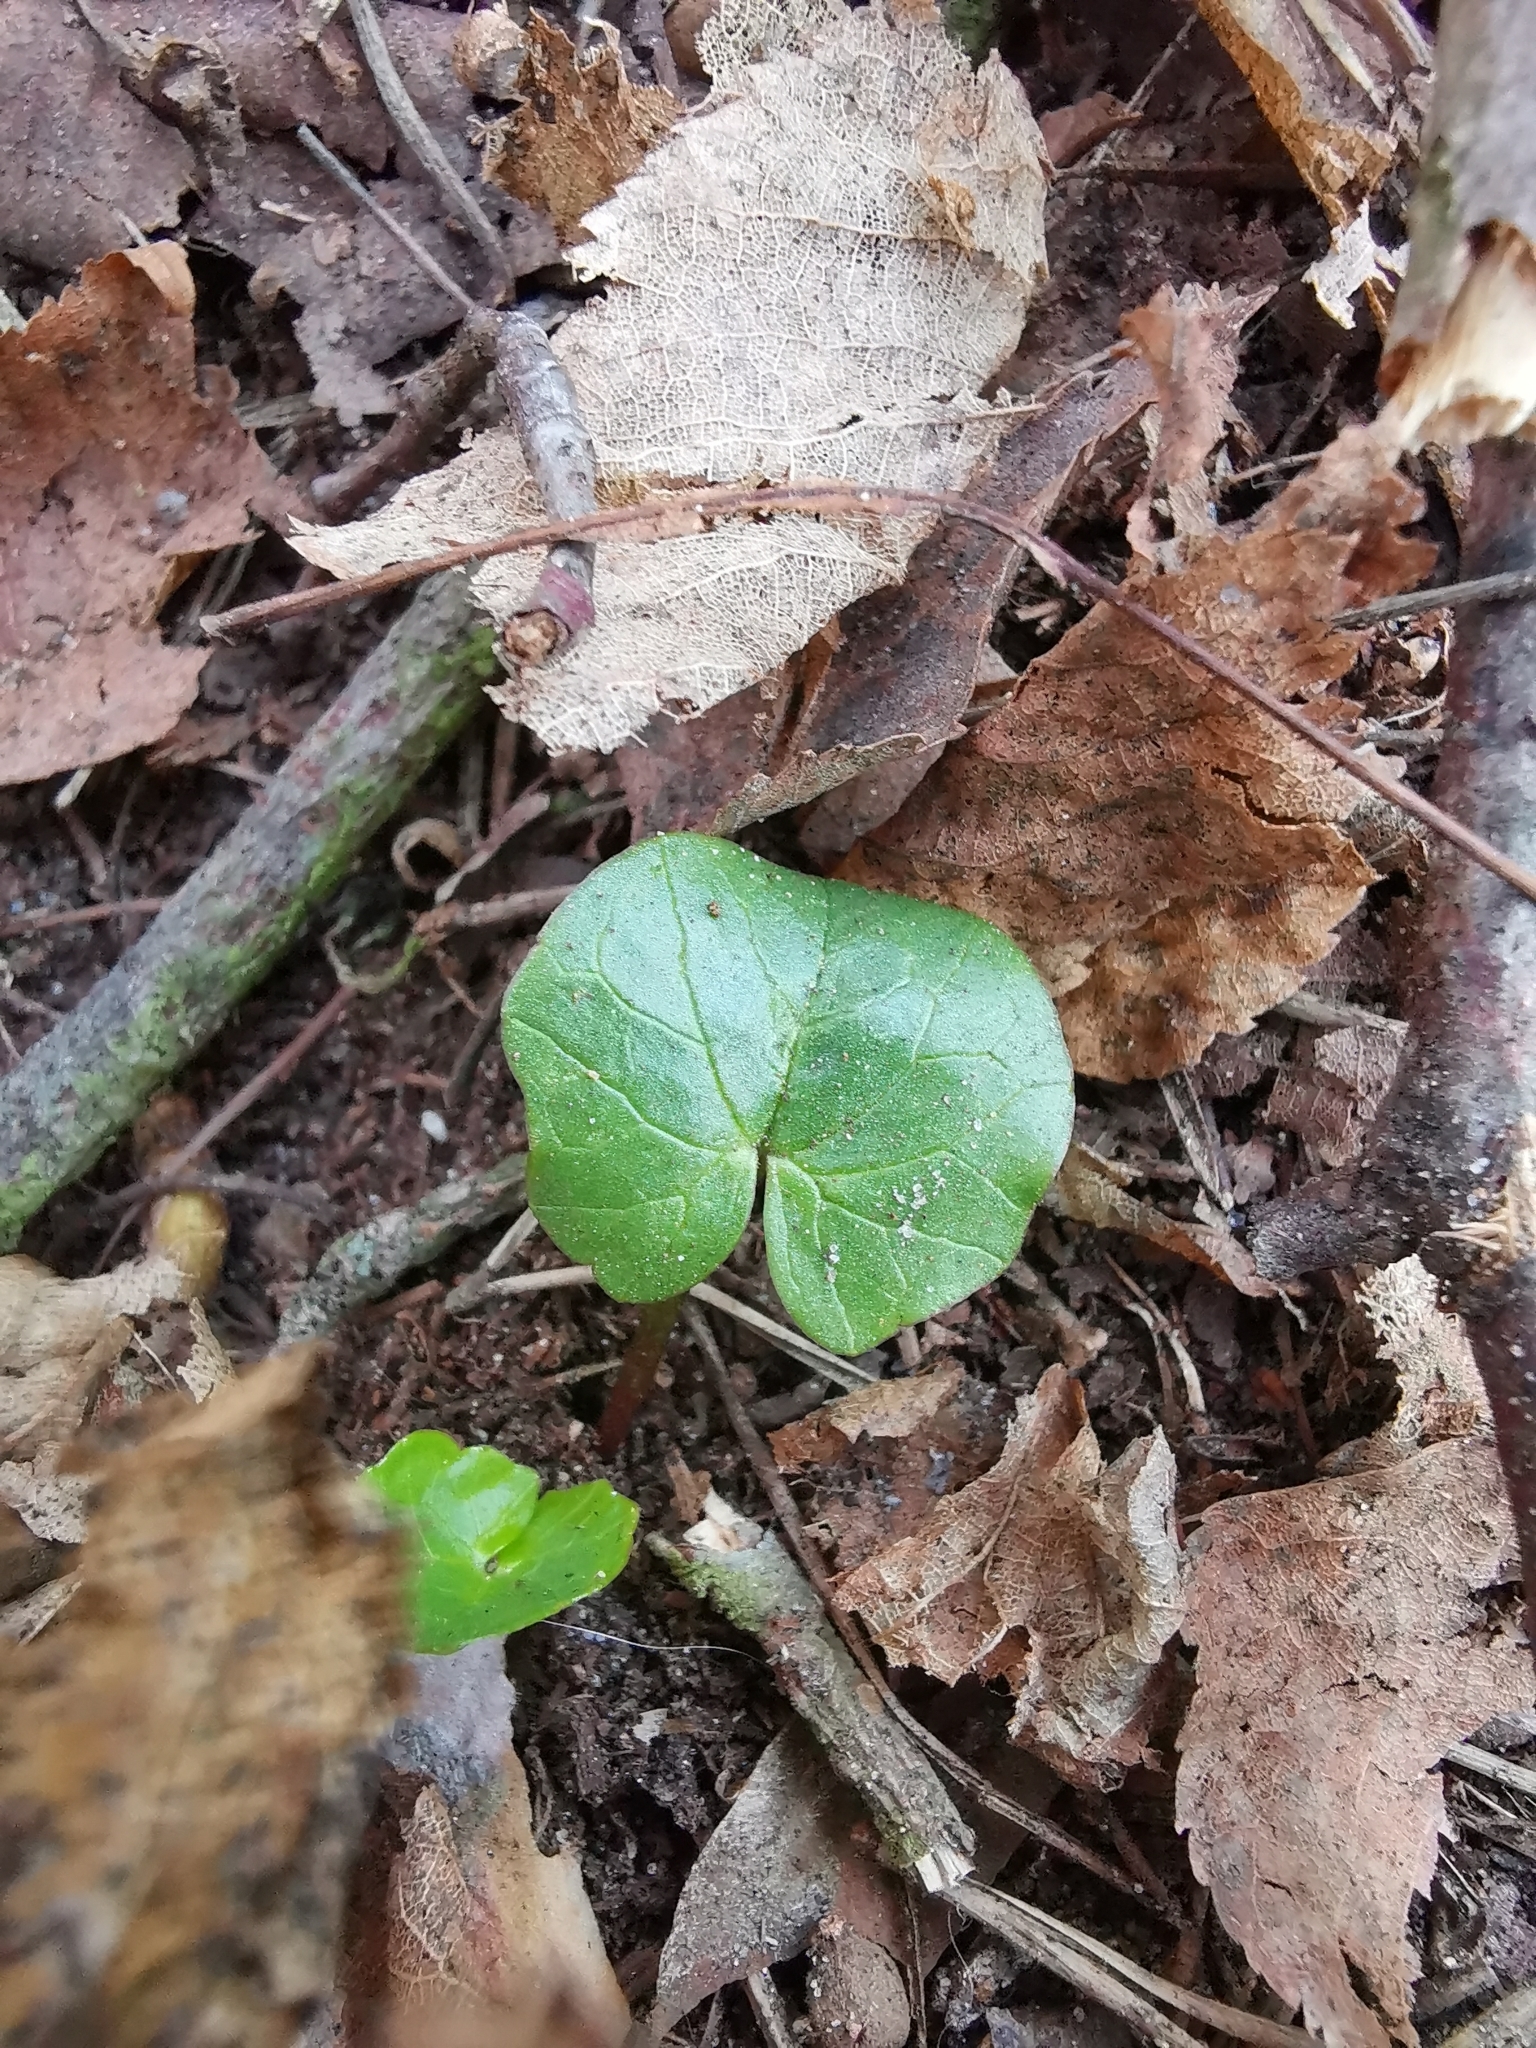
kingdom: Plantae
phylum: Tracheophyta
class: Magnoliopsida
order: Ranunculales
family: Ranunculaceae
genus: Ficaria
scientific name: Ficaria verna
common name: Lesser celandine
